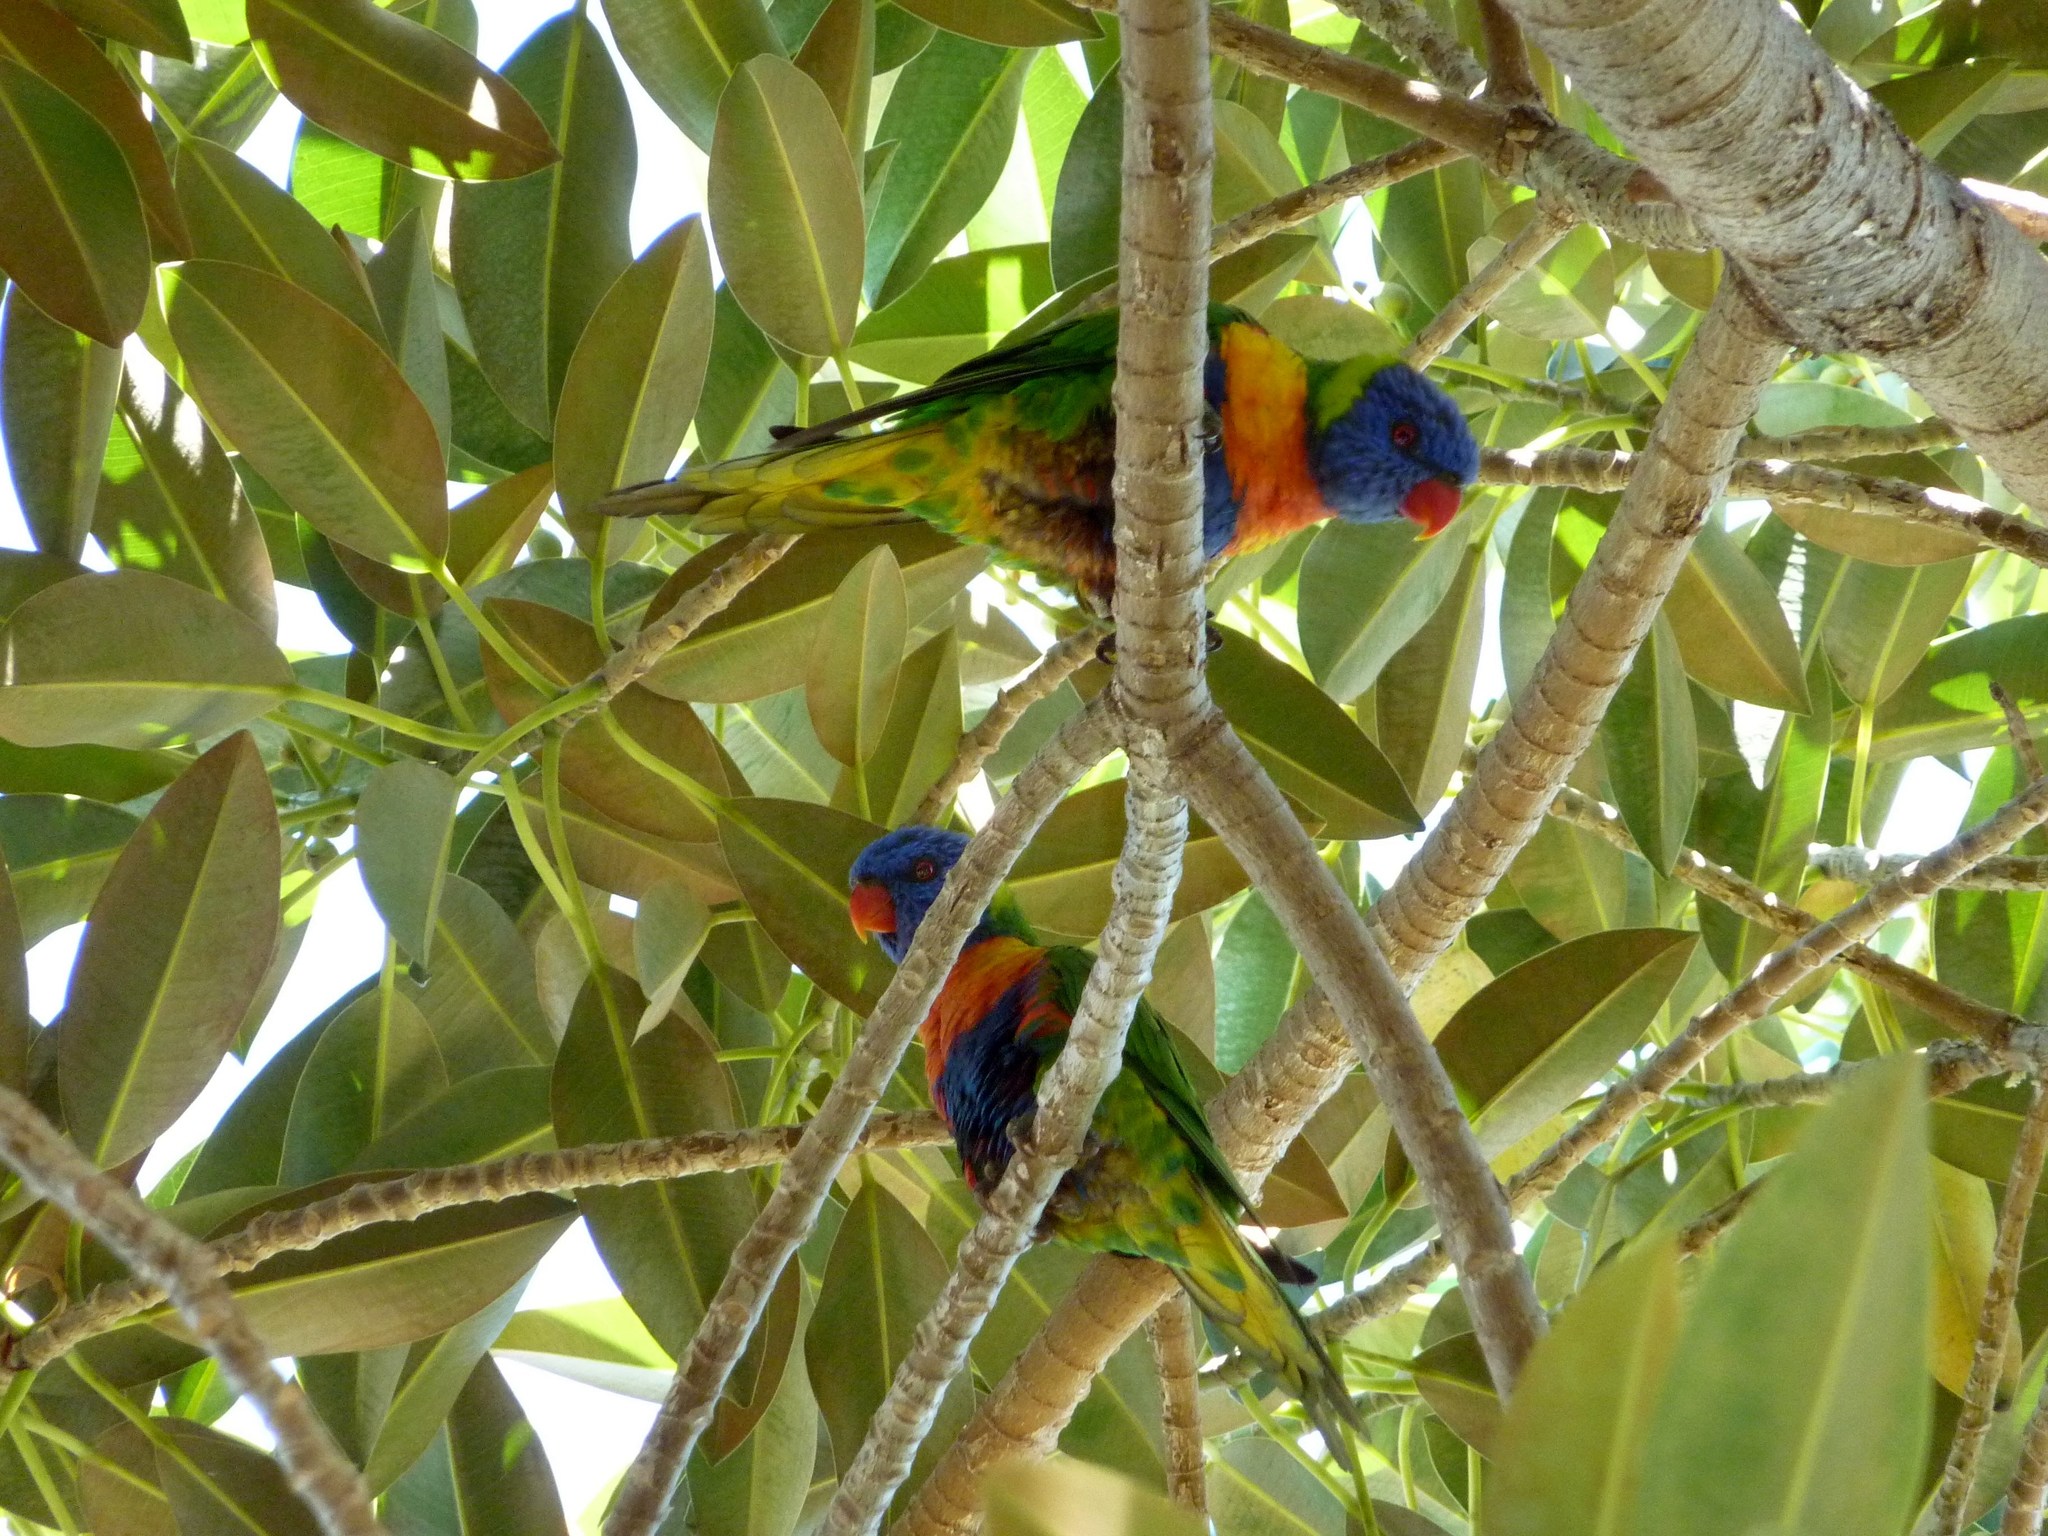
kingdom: Animalia
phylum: Chordata
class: Aves
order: Psittaciformes
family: Psittacidae
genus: Trichoglossus
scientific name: Trichoglossus haematodus
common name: Coconut lorikeet
